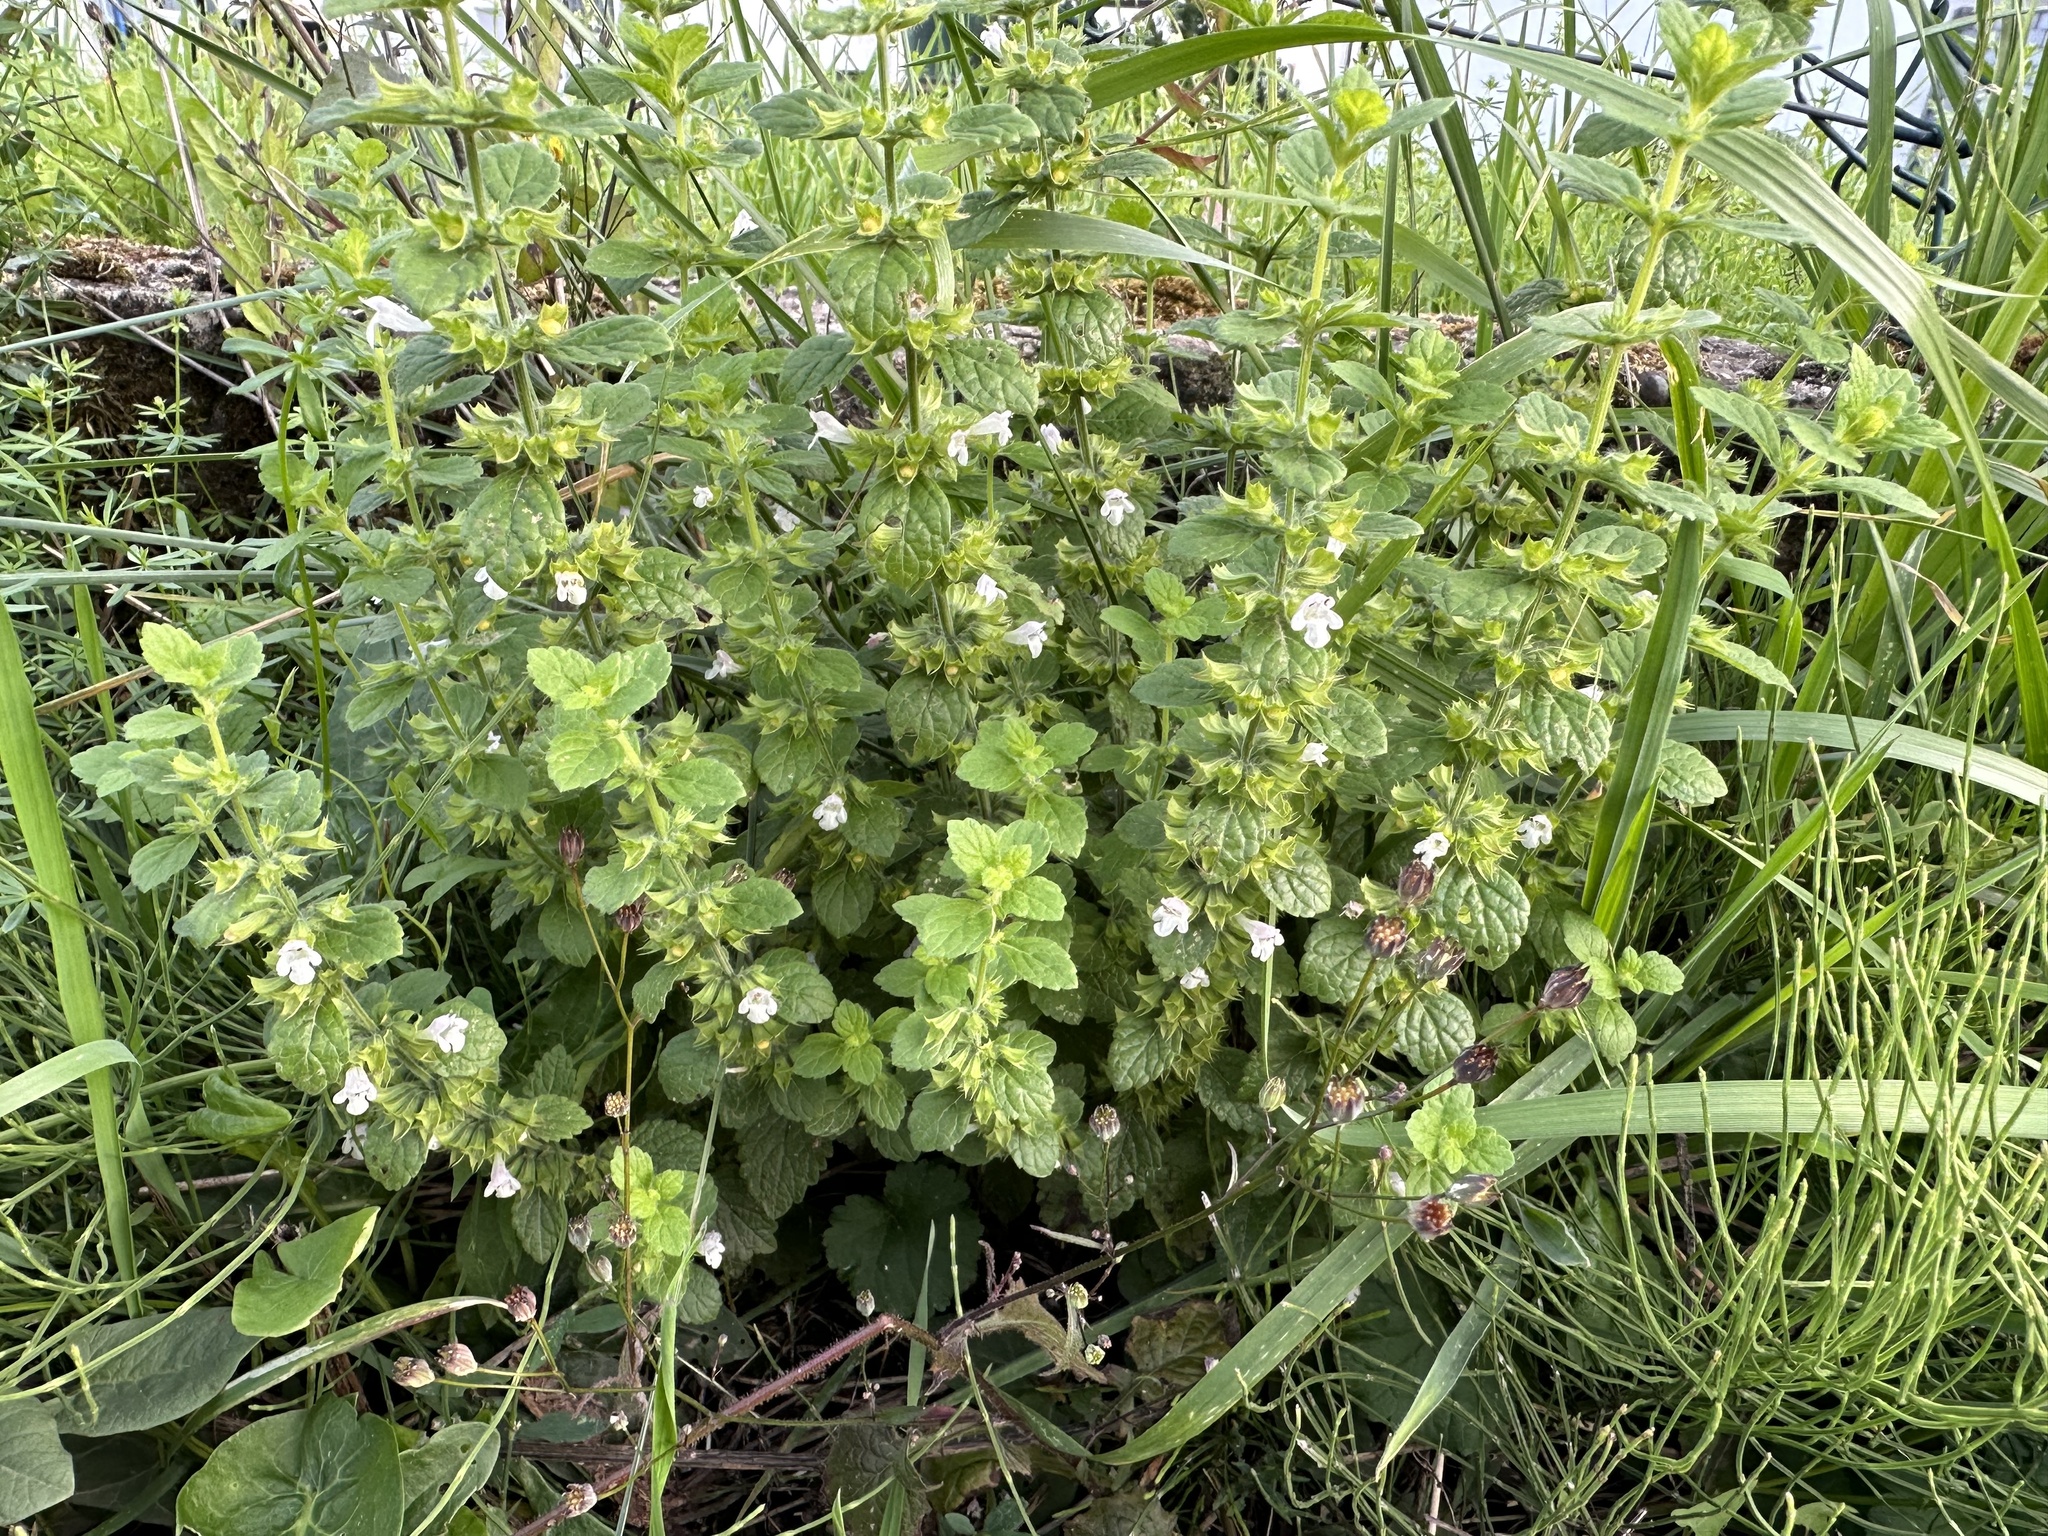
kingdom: Plantae
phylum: Tracheophyta
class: Magnoliopsida
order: Lamiales
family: Lamiaceae
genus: Melissa
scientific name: Melissa officinalis
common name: Balm
